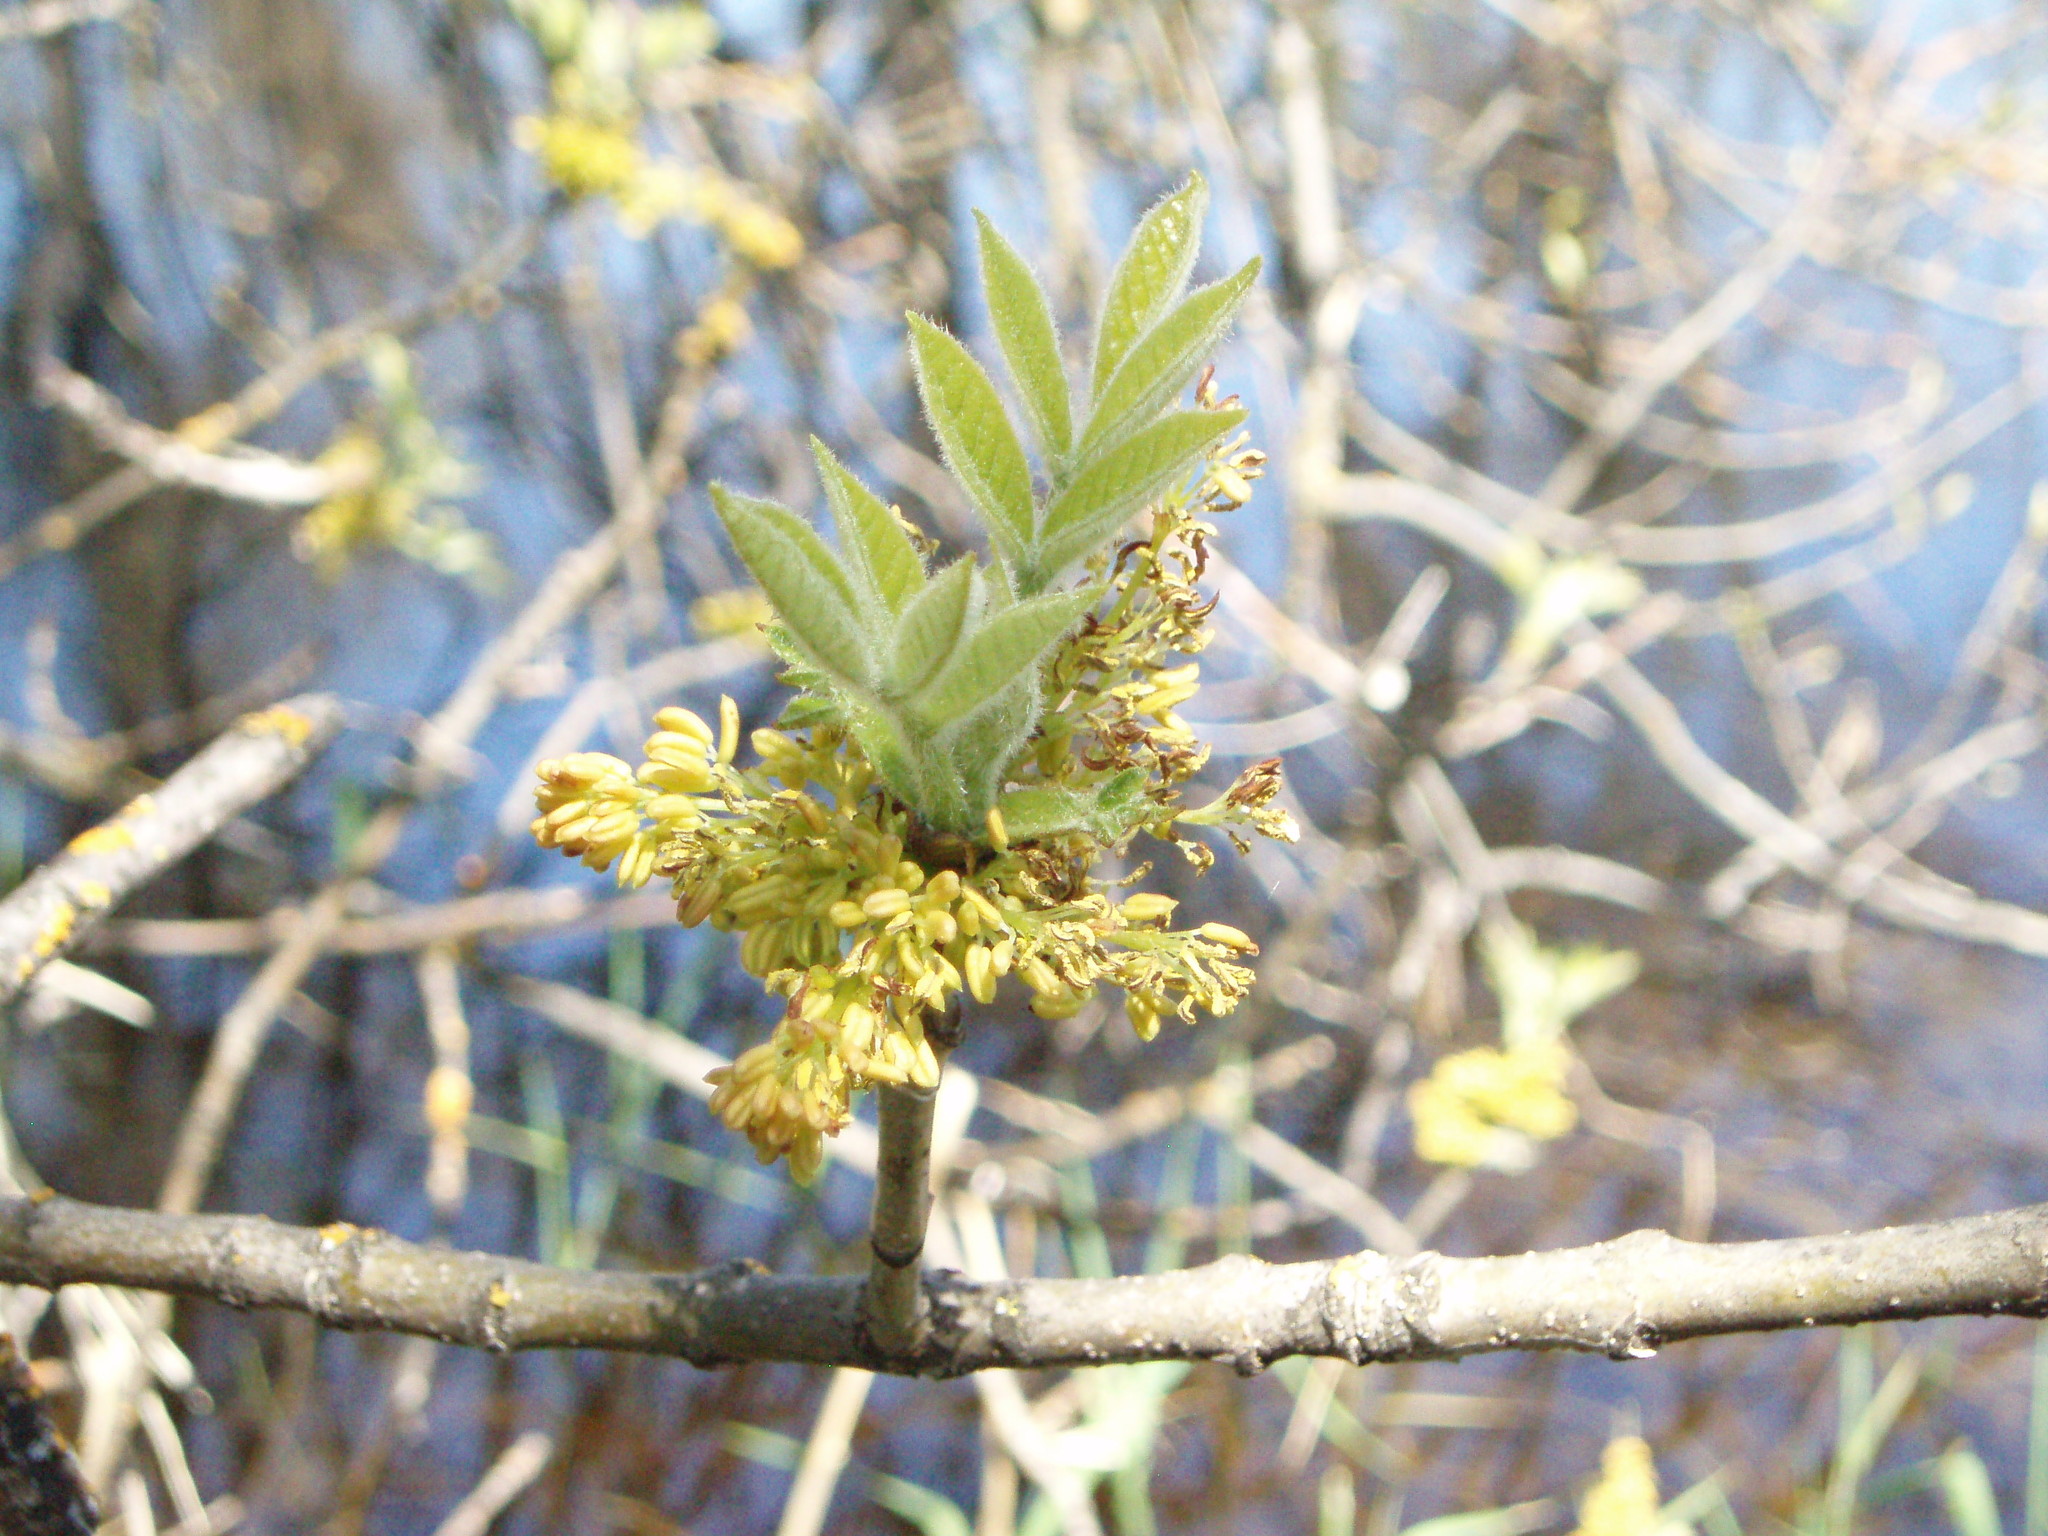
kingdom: Plantae
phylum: Tracheophyta
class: Magnoliopsida
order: Lamiales
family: Oleaceae
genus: Fraxinus
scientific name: Fraxinus latifolia
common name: Oregon ash
